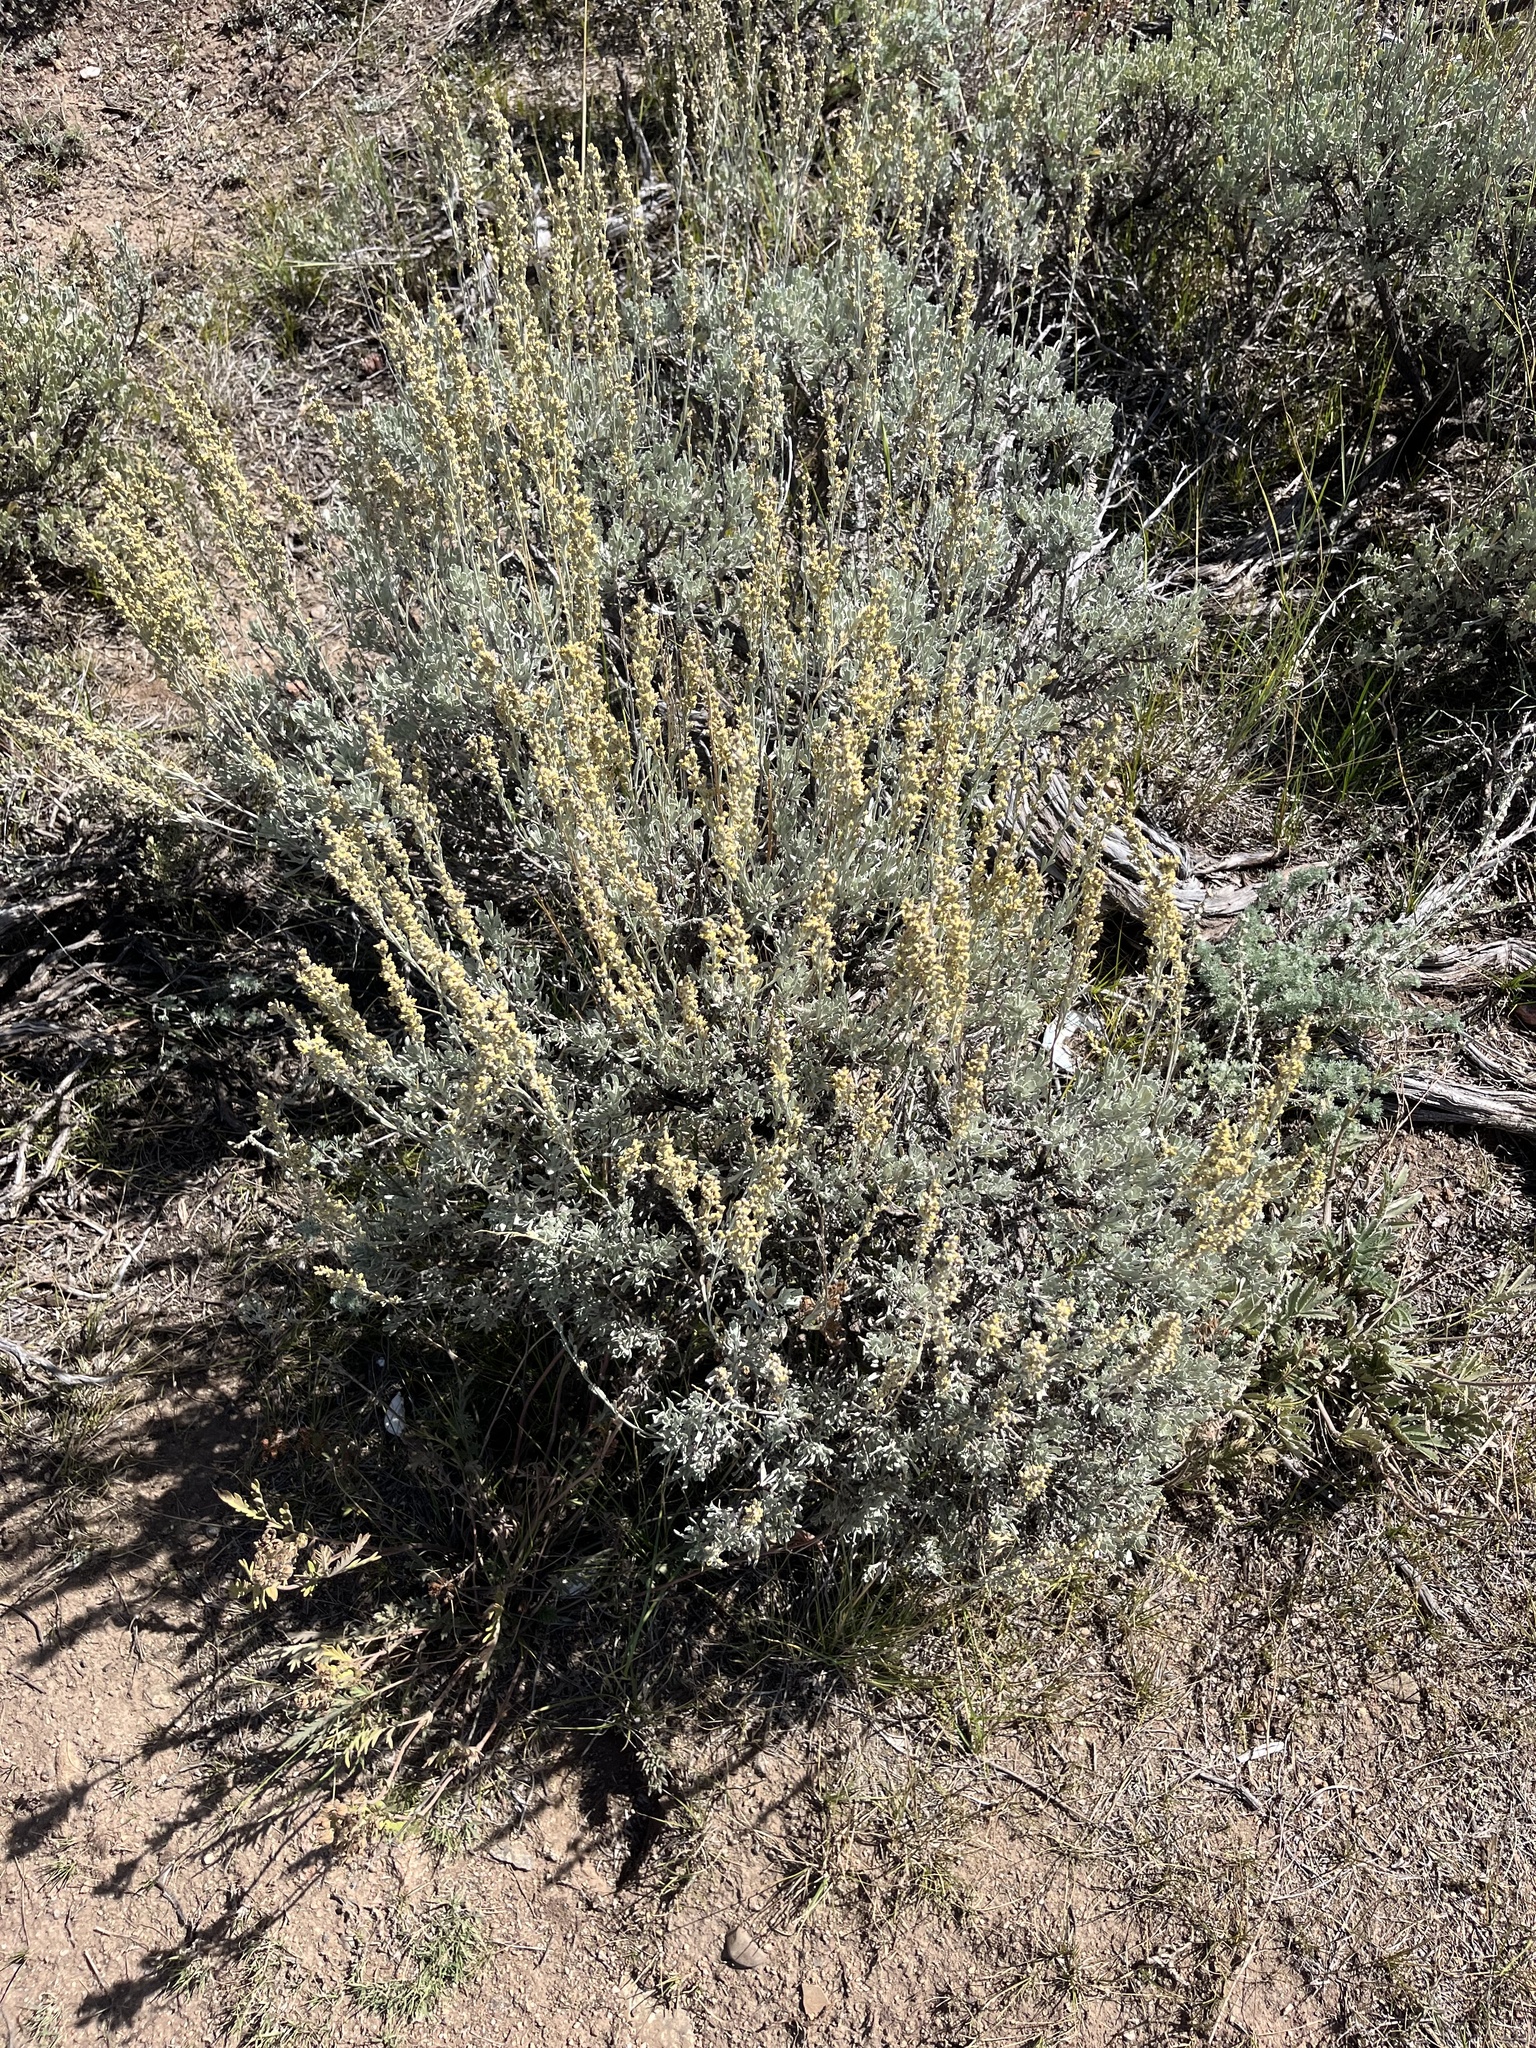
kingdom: Plantae
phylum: Tracheophyta
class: Magnoliopsida
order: Asterales
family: Asteraceae
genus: Artemisia
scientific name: Artemisia tridentata
